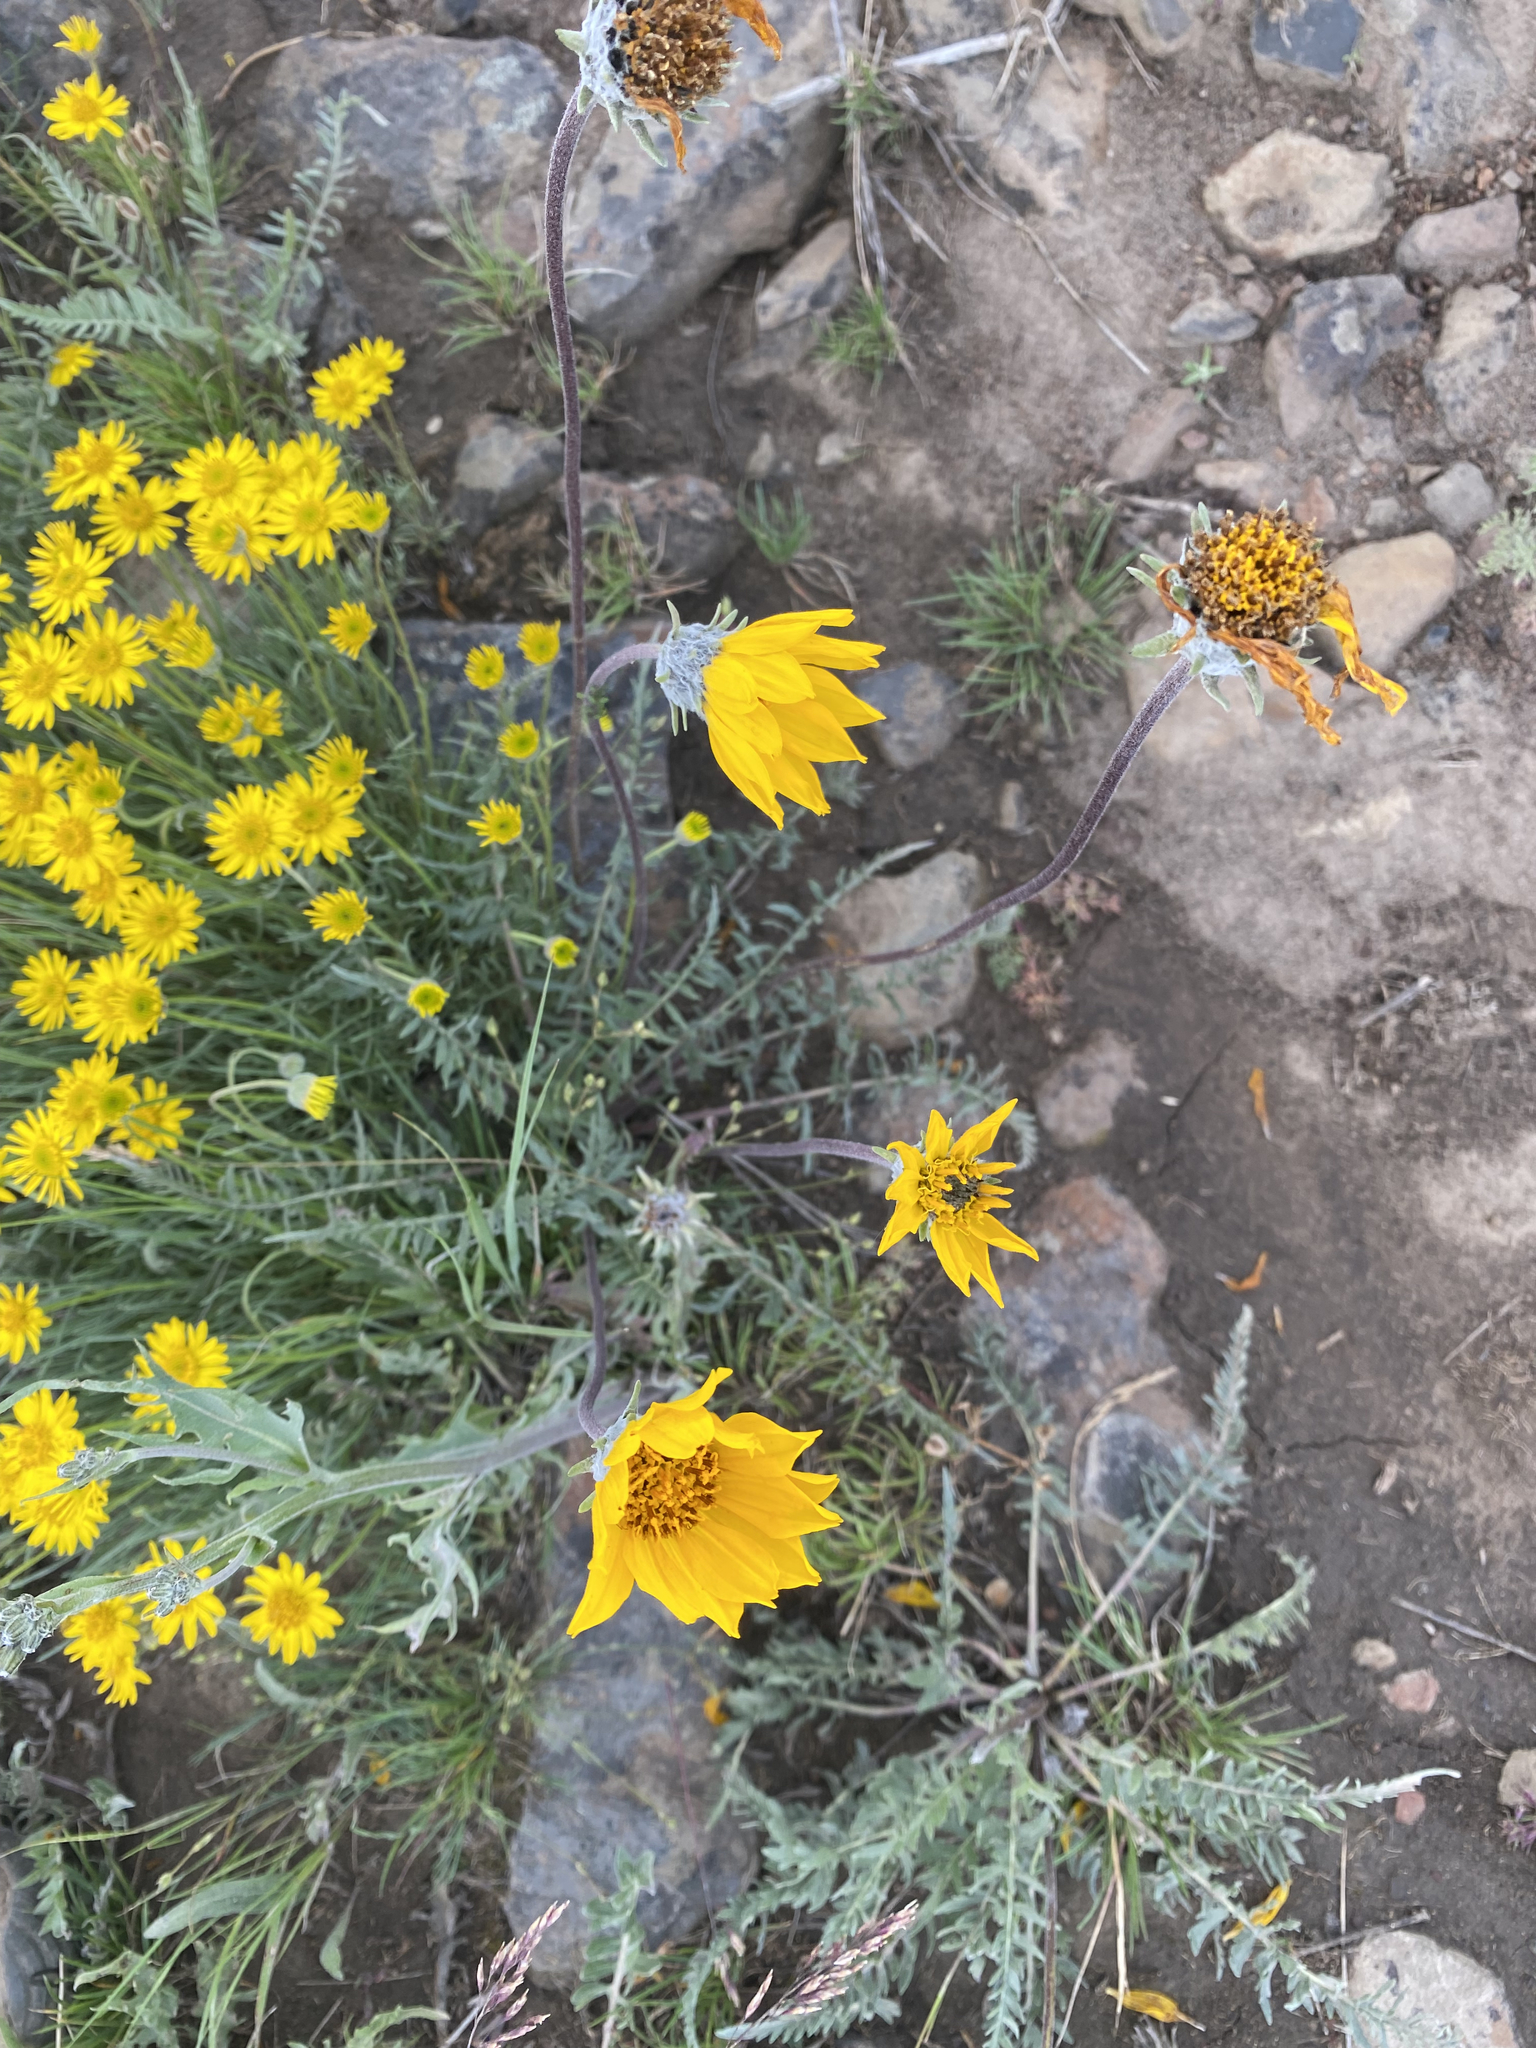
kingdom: Plantae
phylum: Tracheophyta
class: Magnoliopsida
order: Asterales
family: Asteraceae
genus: Balsamorhiza
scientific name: Balsamorhiza hookeri
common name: Hooker's balsamroot
